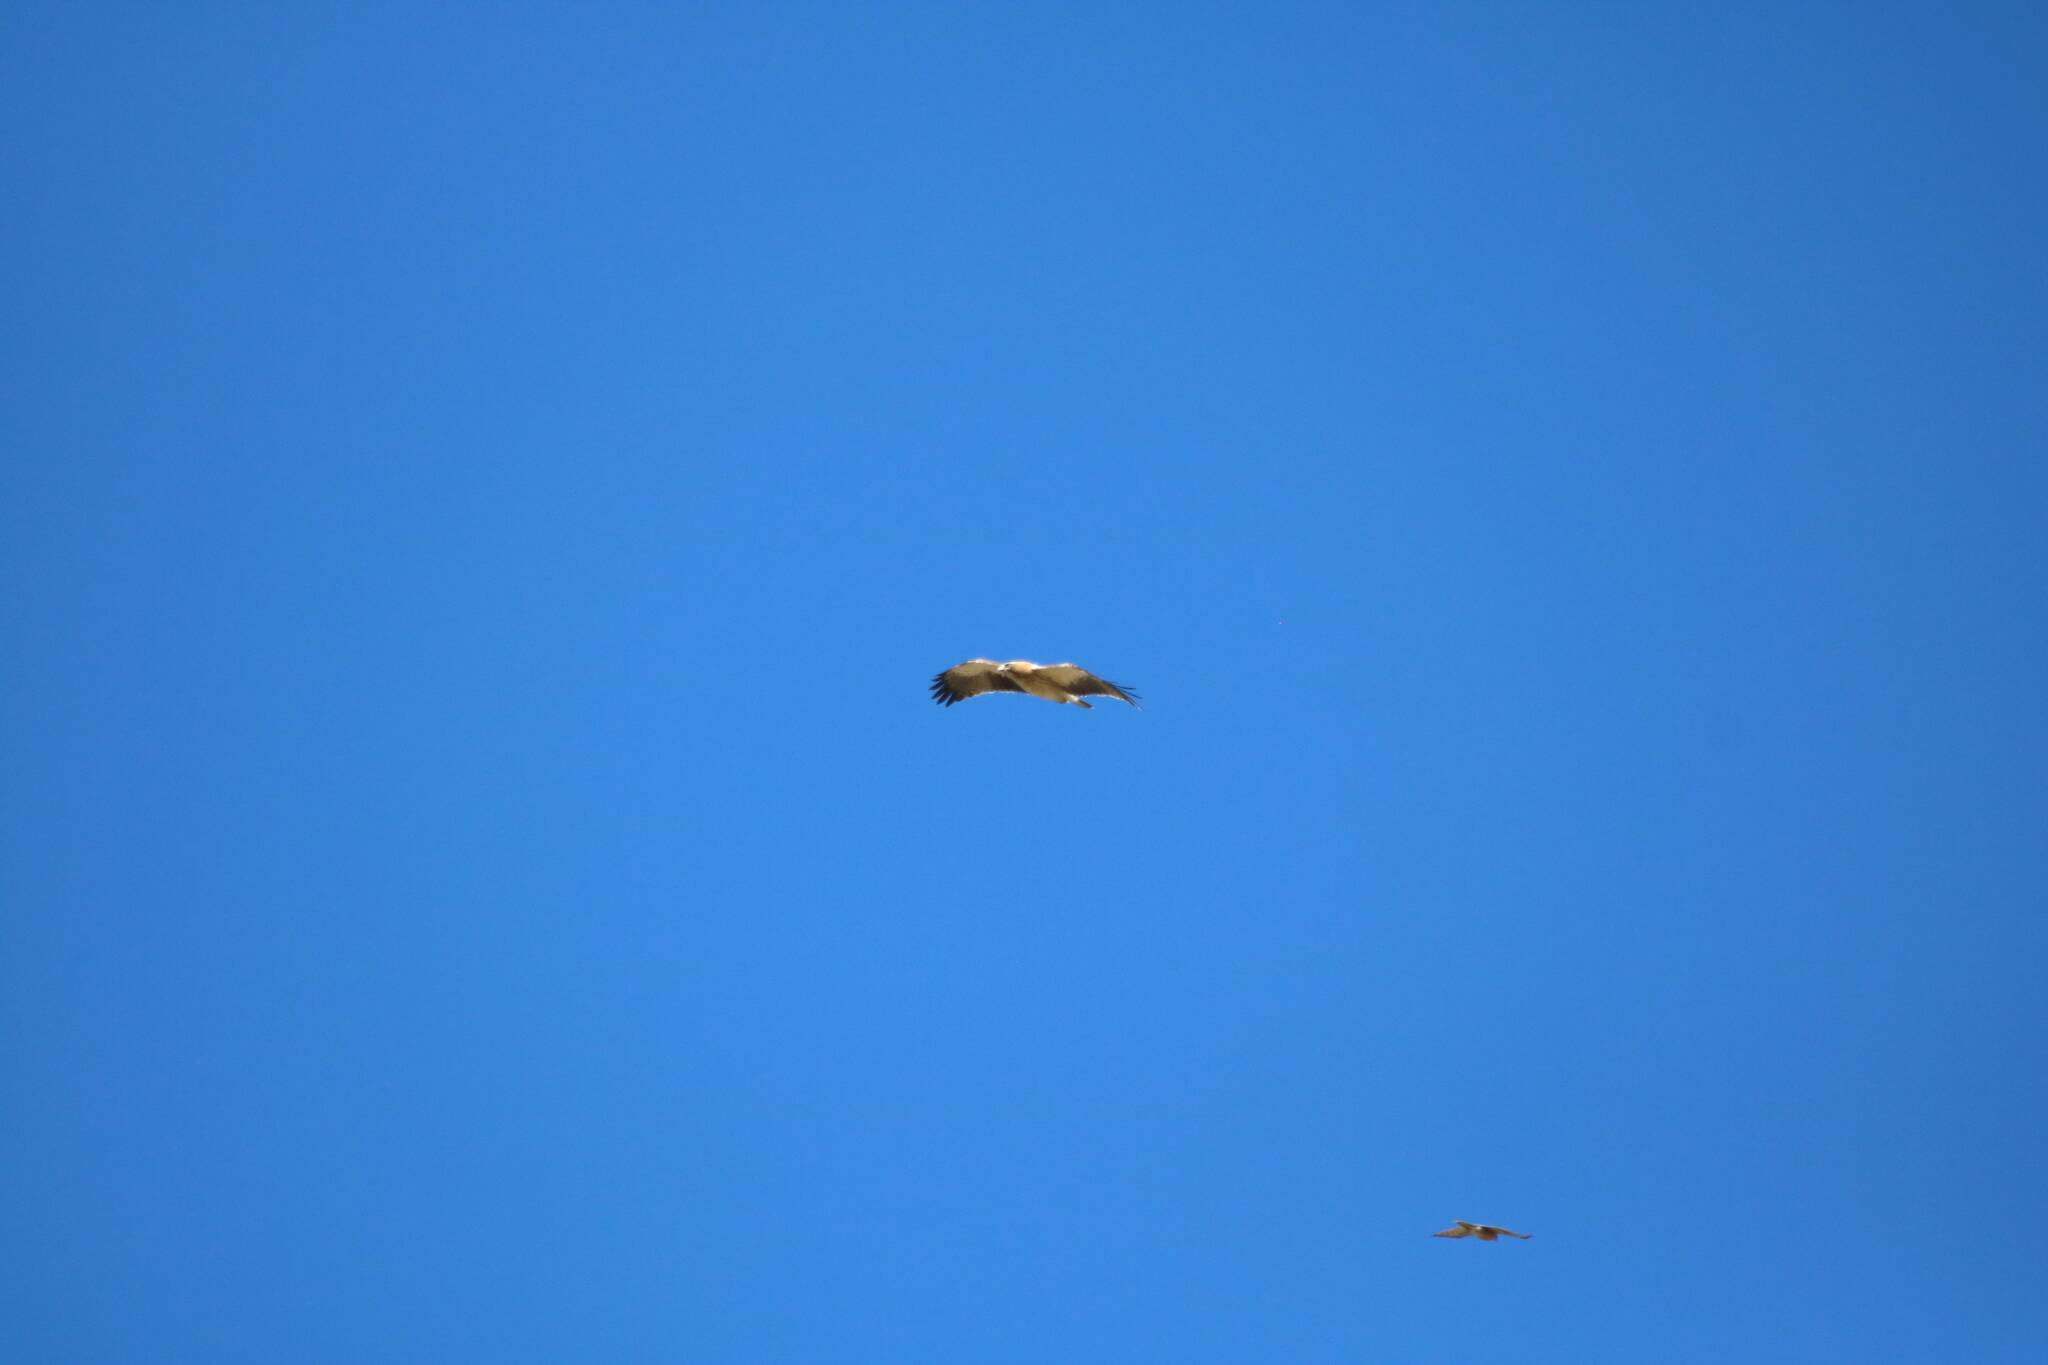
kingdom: Animalia
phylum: Chordata
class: Aves
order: Accipitriformes
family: Accipitridae
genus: Hieraaetus
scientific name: Hieraaetus pennatus
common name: Booted eagle
